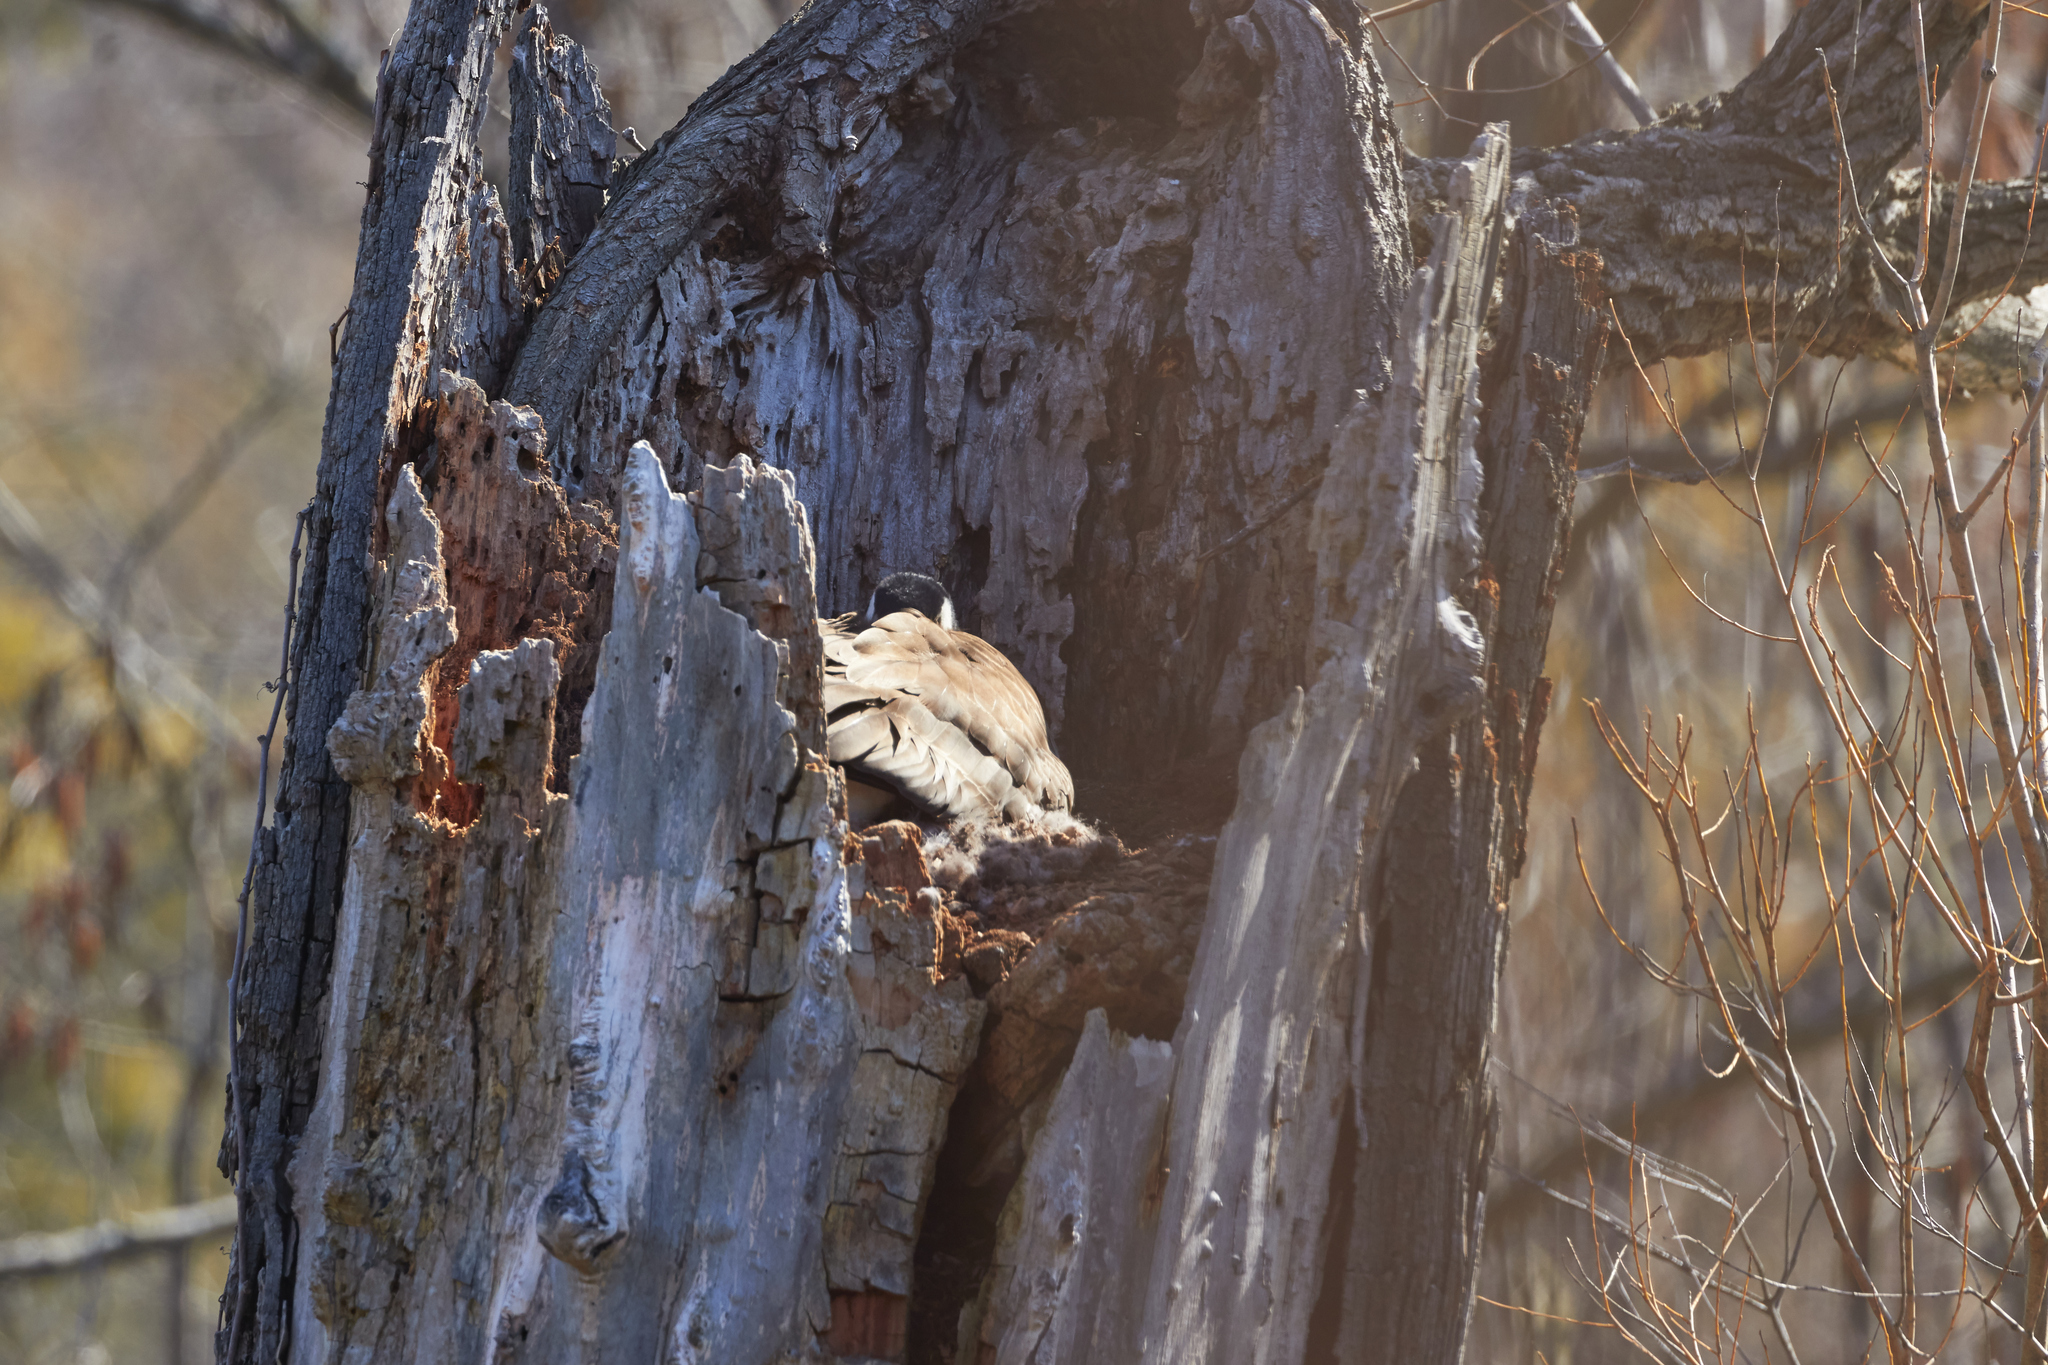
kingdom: Animalia
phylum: Chordata
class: Aves
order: Anseriformes
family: Anatidae
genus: Branta
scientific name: Branta canadensis
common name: Canada goose
